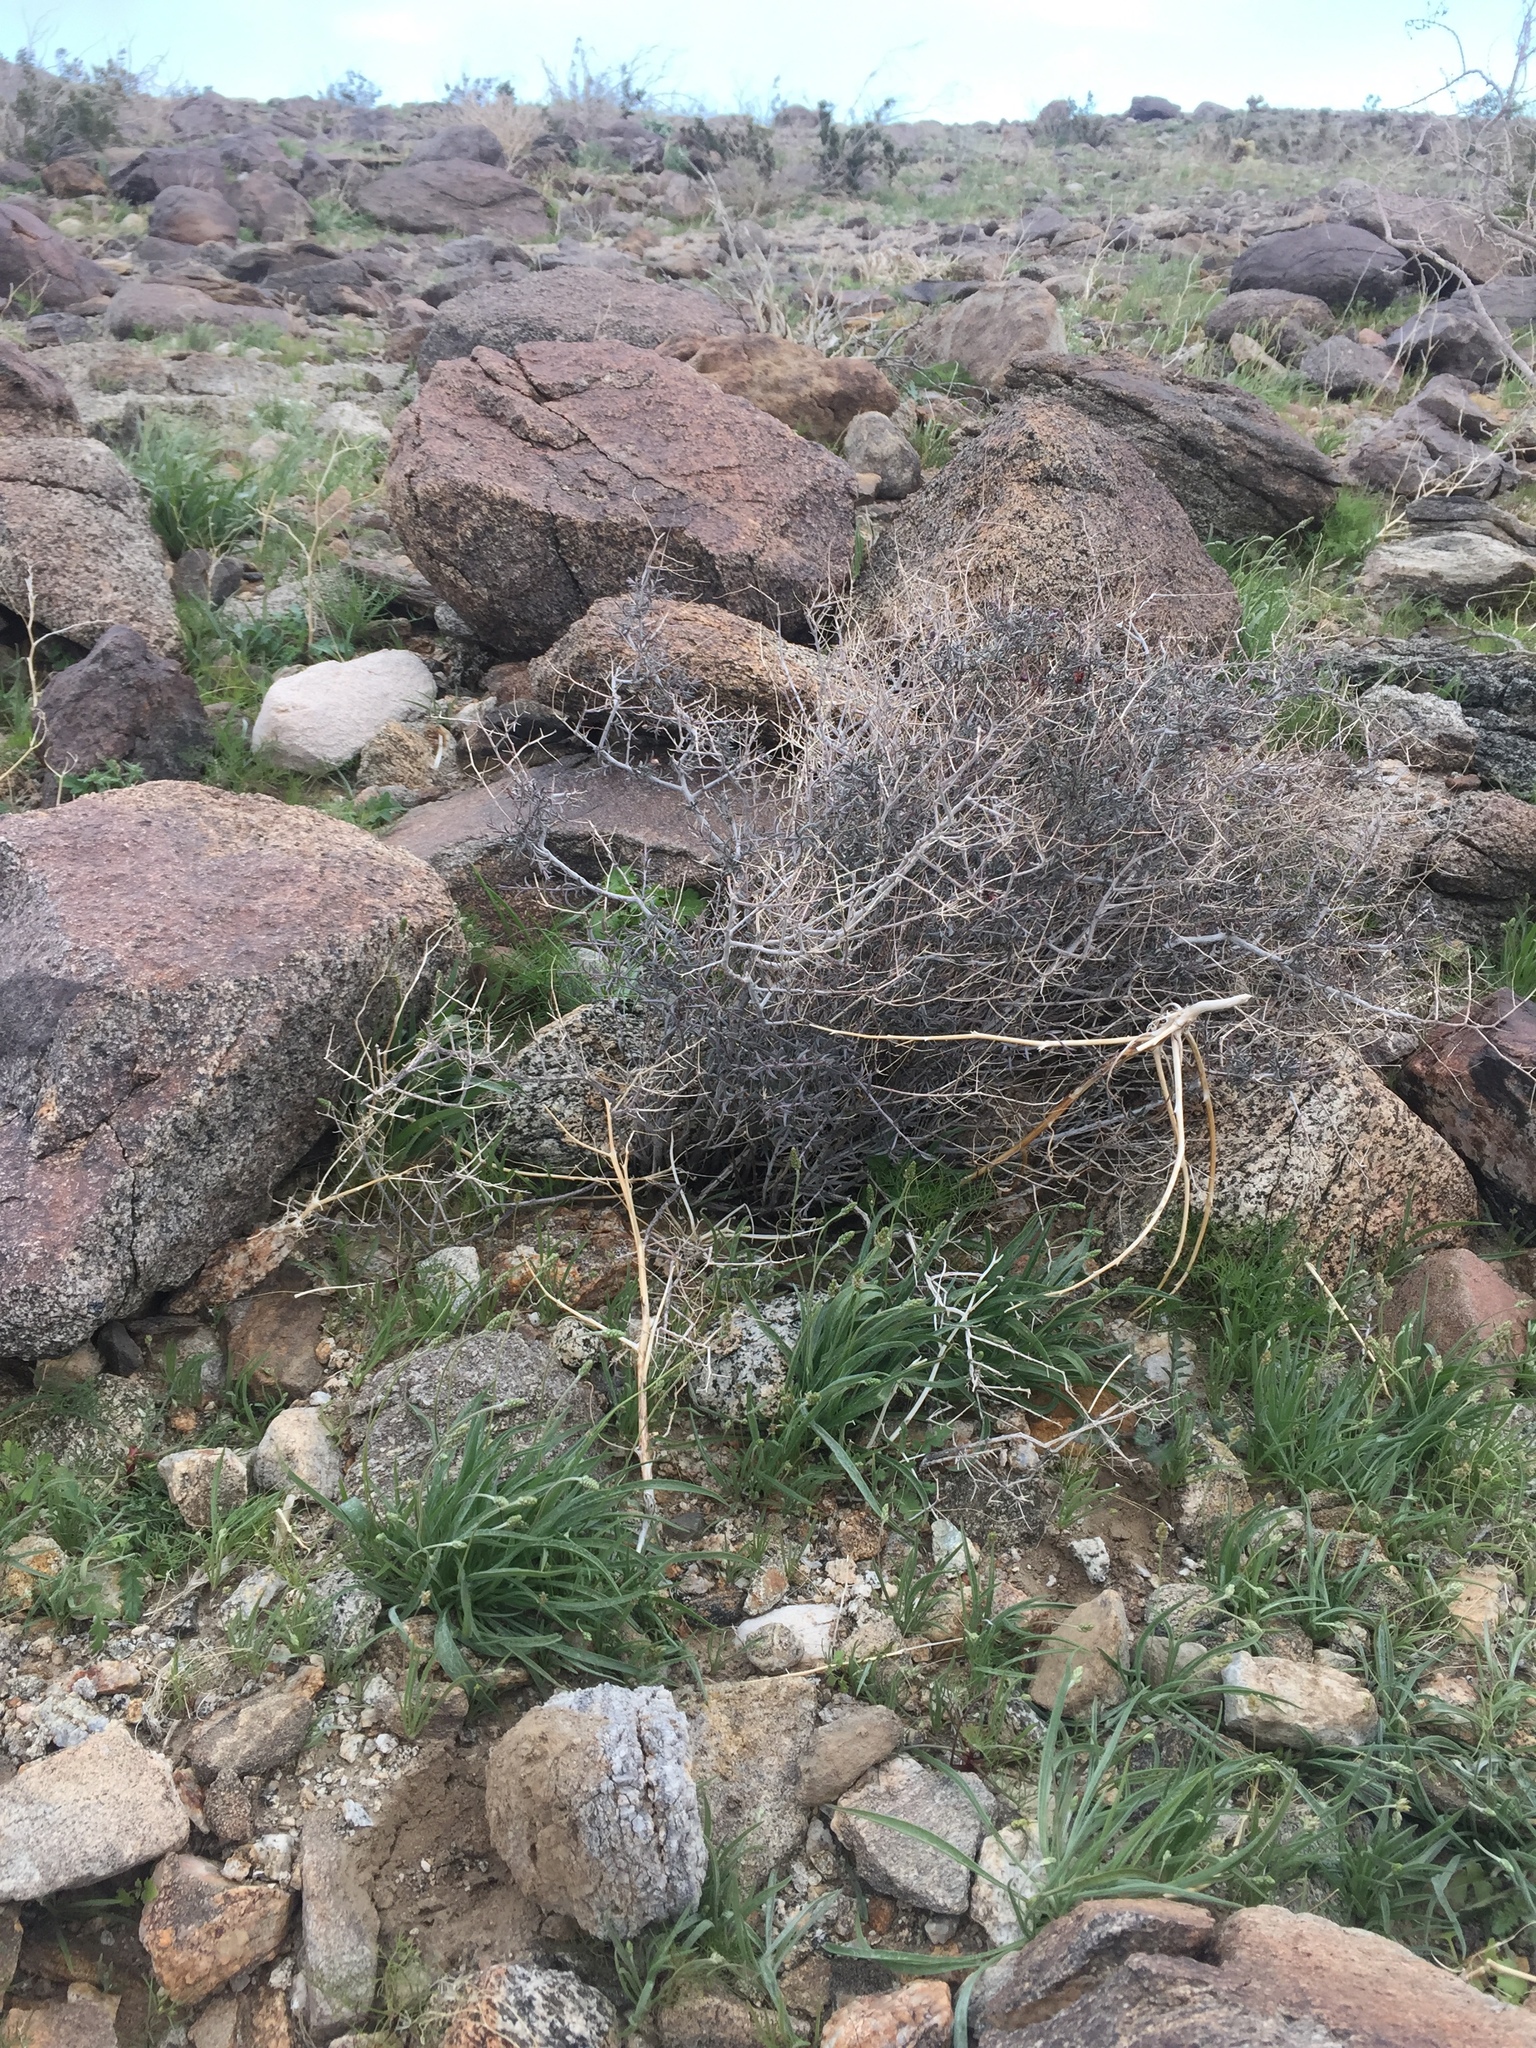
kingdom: Plantae
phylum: Tracheophyta
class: Magnoliopsida
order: Zygophyllales
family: Krameriaceae
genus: Krameria
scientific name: Krameria erecta
